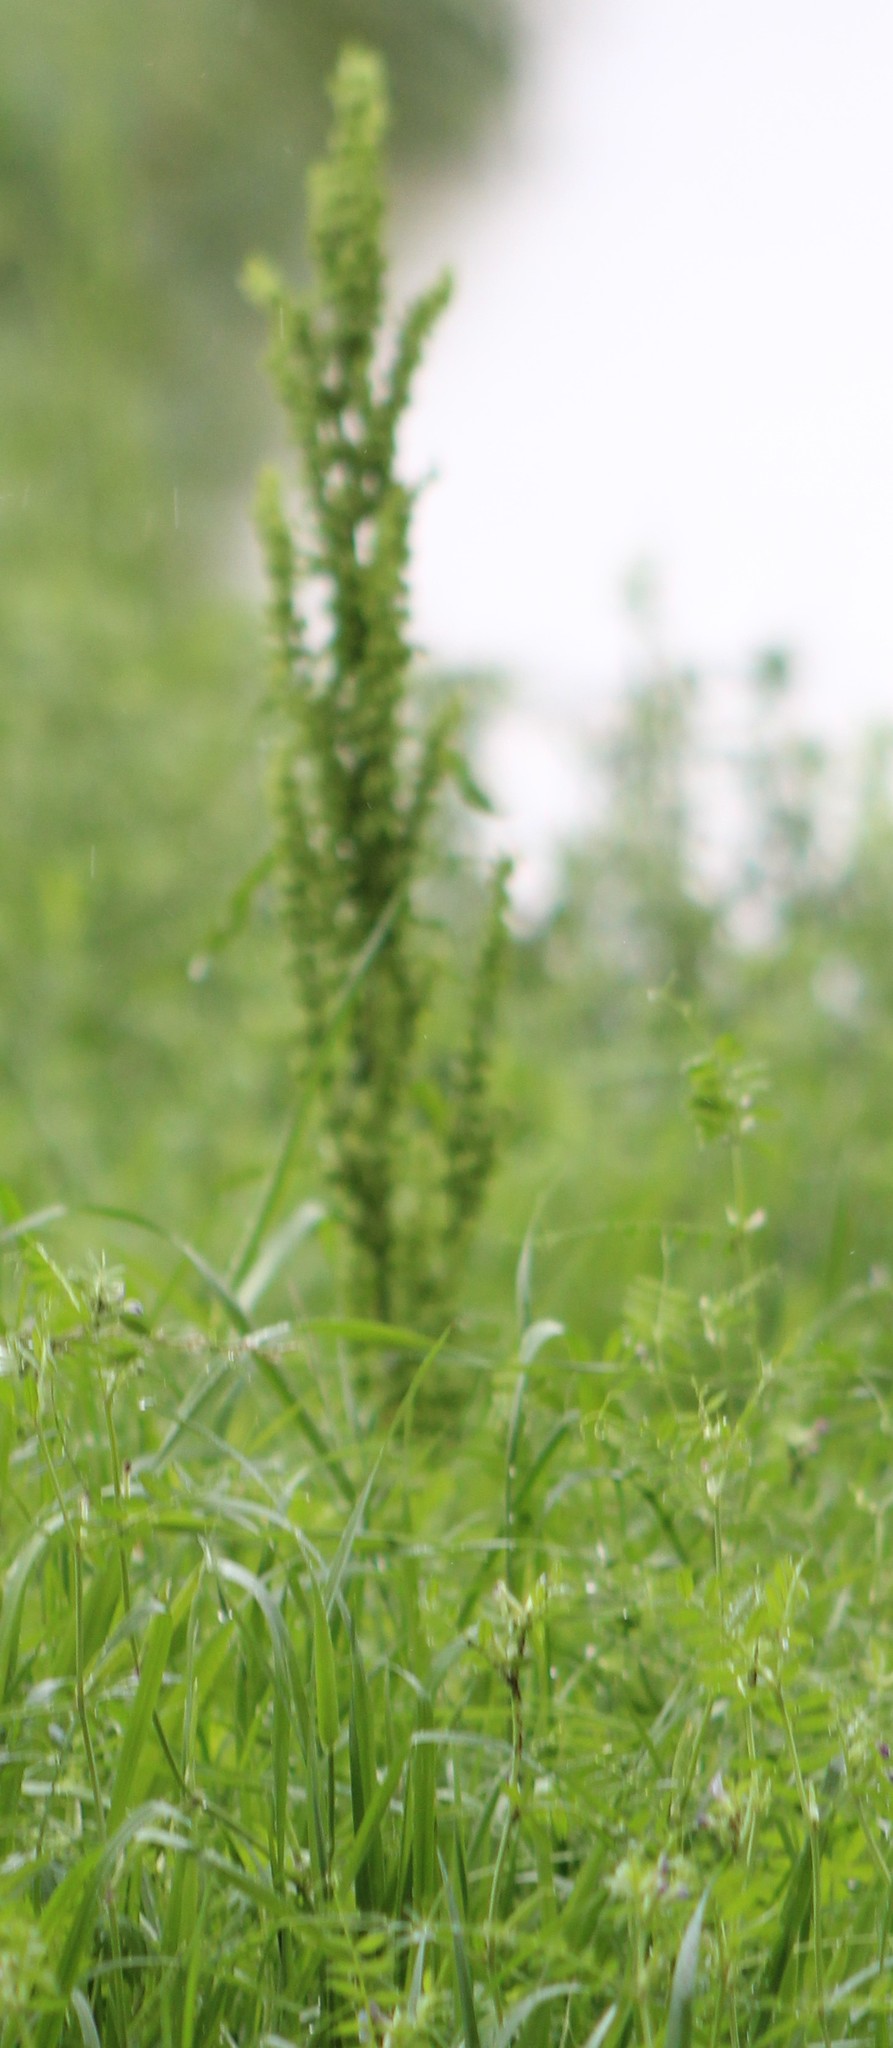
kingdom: Plantae
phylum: Tracheophyta
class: Magnoliopsida
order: Caryophyllales
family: Polygonaceae
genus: Rumex
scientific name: Rumex crispus
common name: Curled dock
